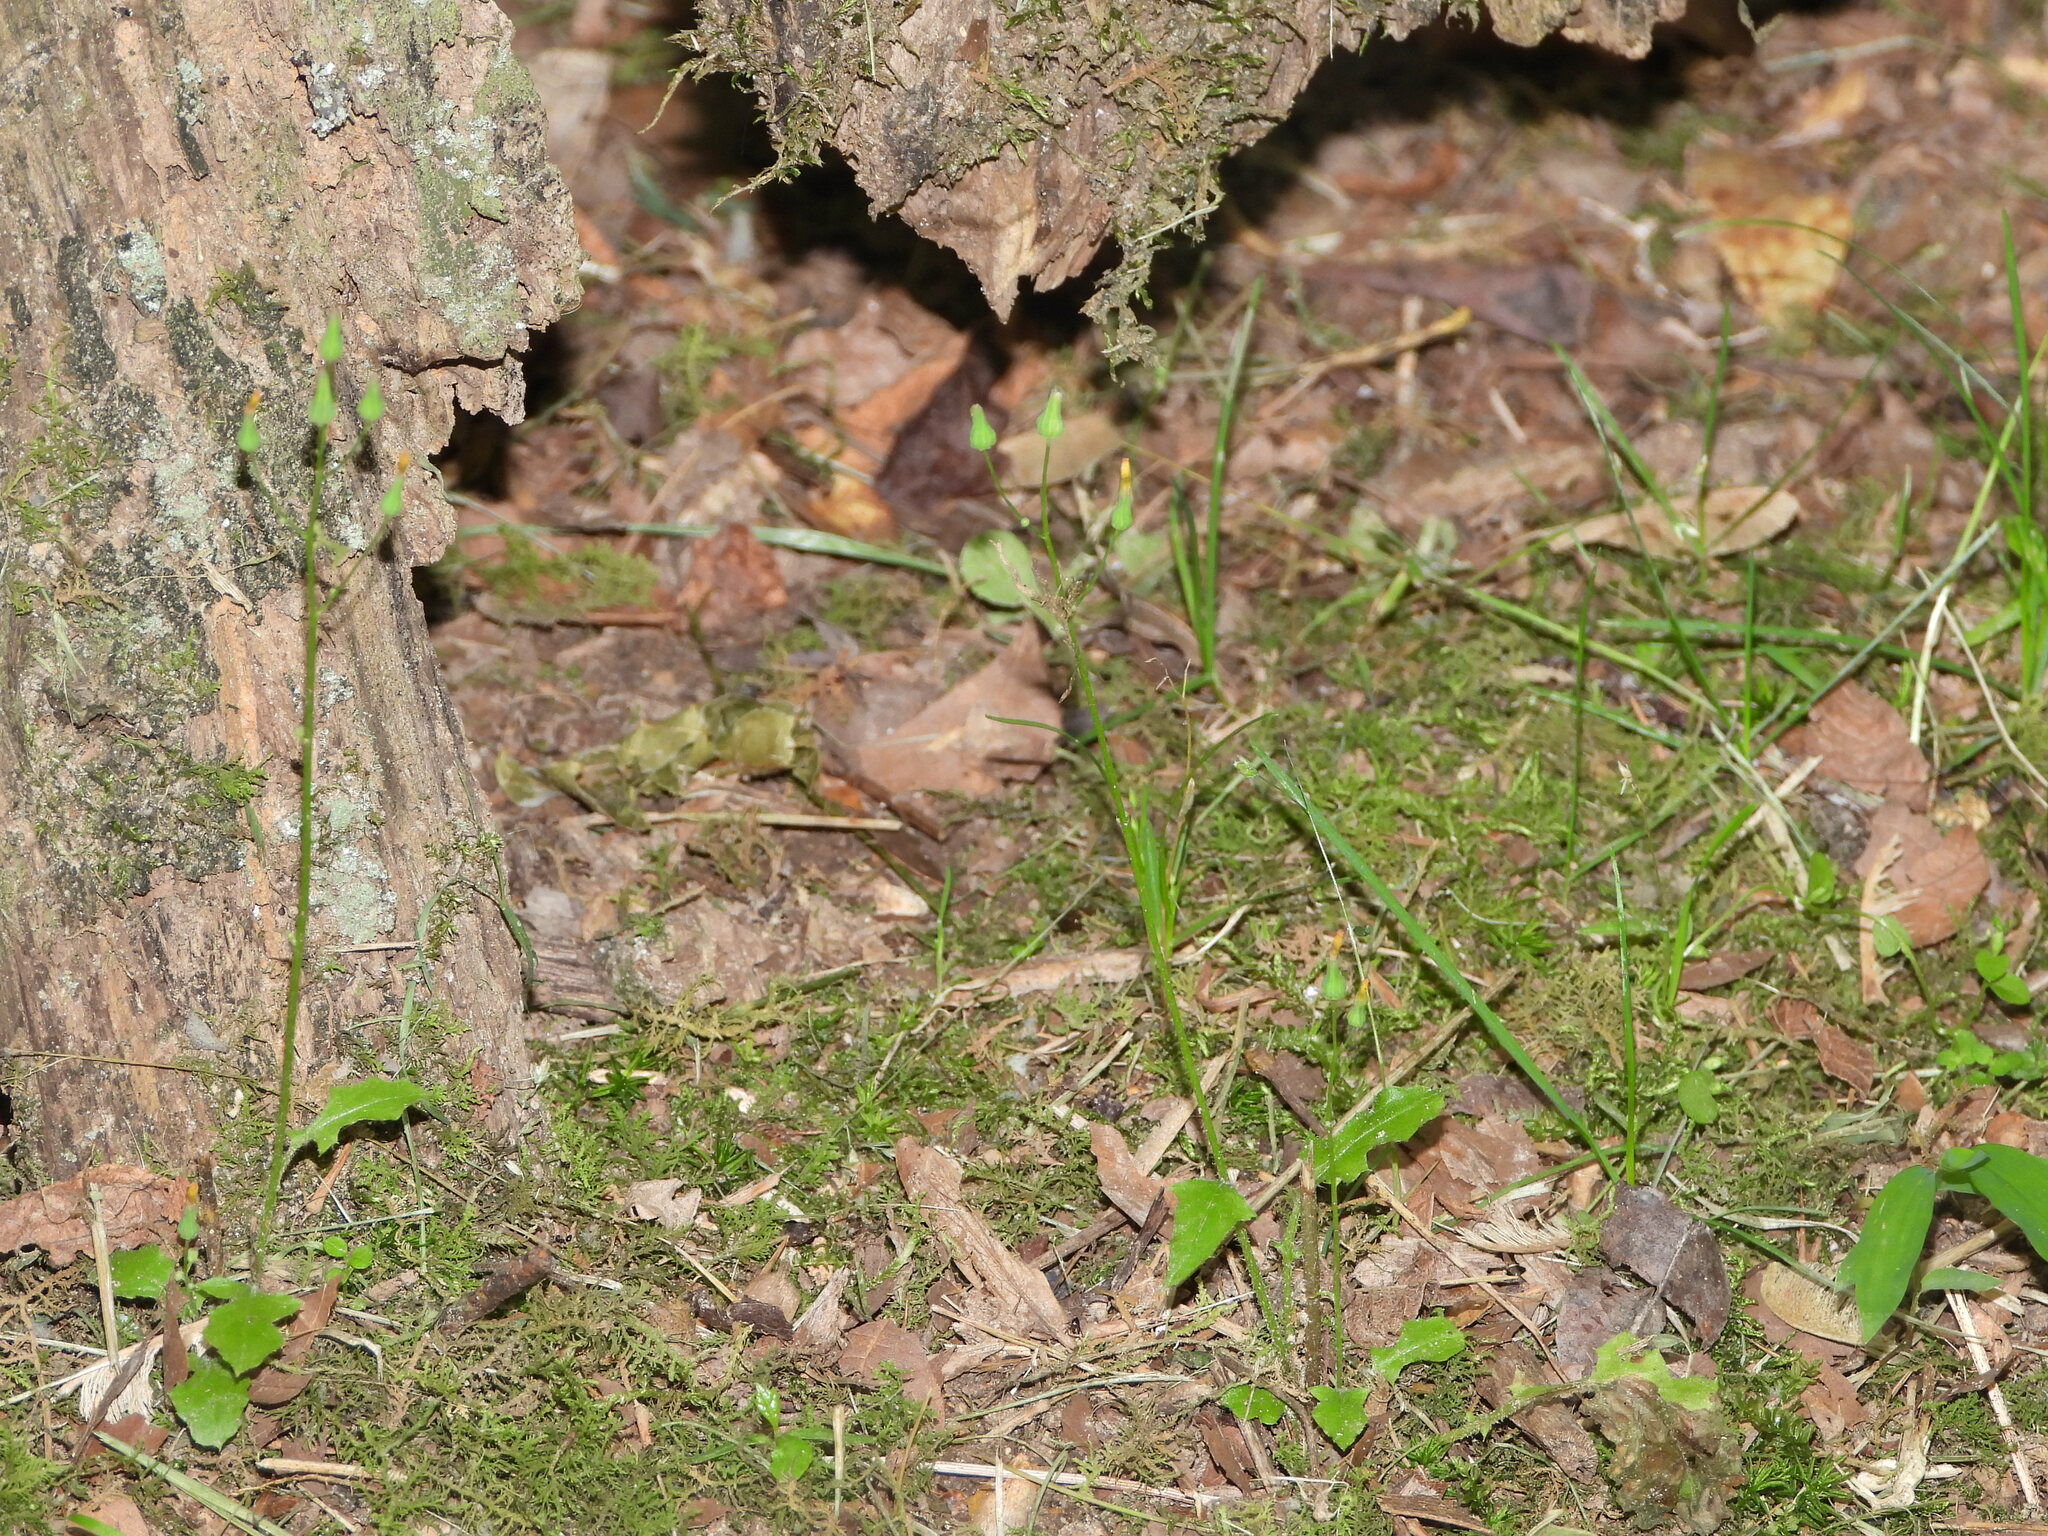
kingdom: Plantae
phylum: Tracheophyta
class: Magnoliopsida
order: Asterales
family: Asteraceae
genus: Youngia
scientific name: Youngia japonica
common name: Oriental false hawksbeard
